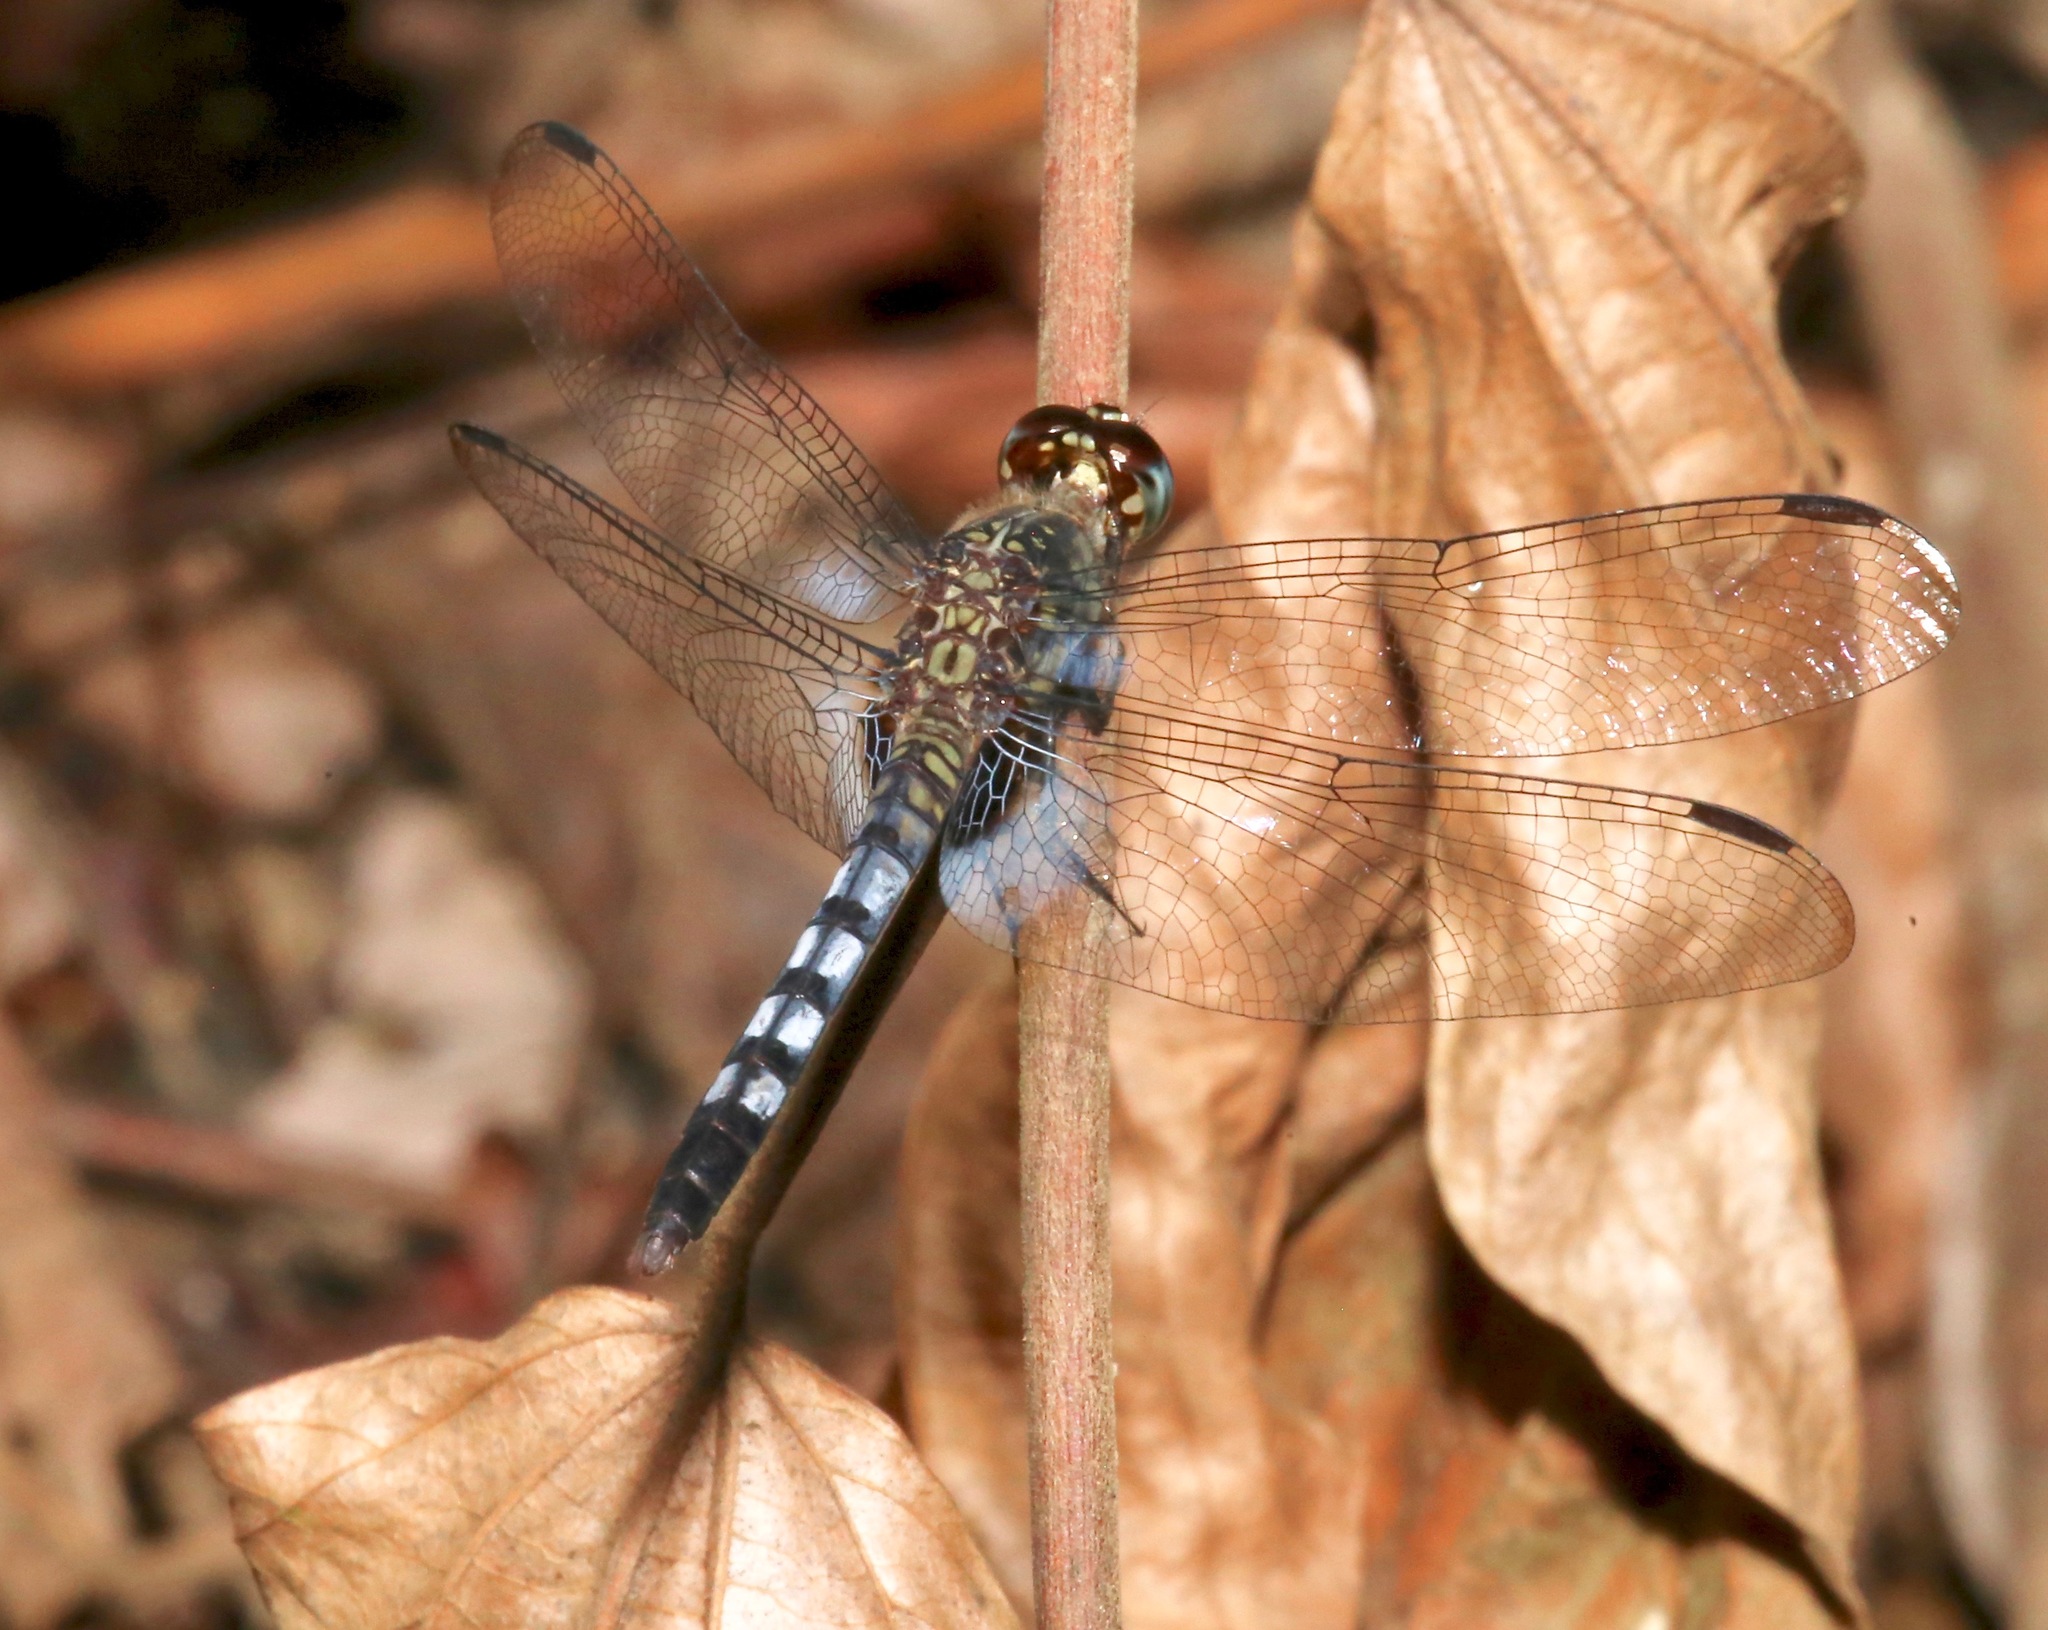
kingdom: Animalia
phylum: Arthropoda
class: Insecta
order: Odonata
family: Libellulidae
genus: Erythrodiplax
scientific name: Erythrodiplax kimminsi
